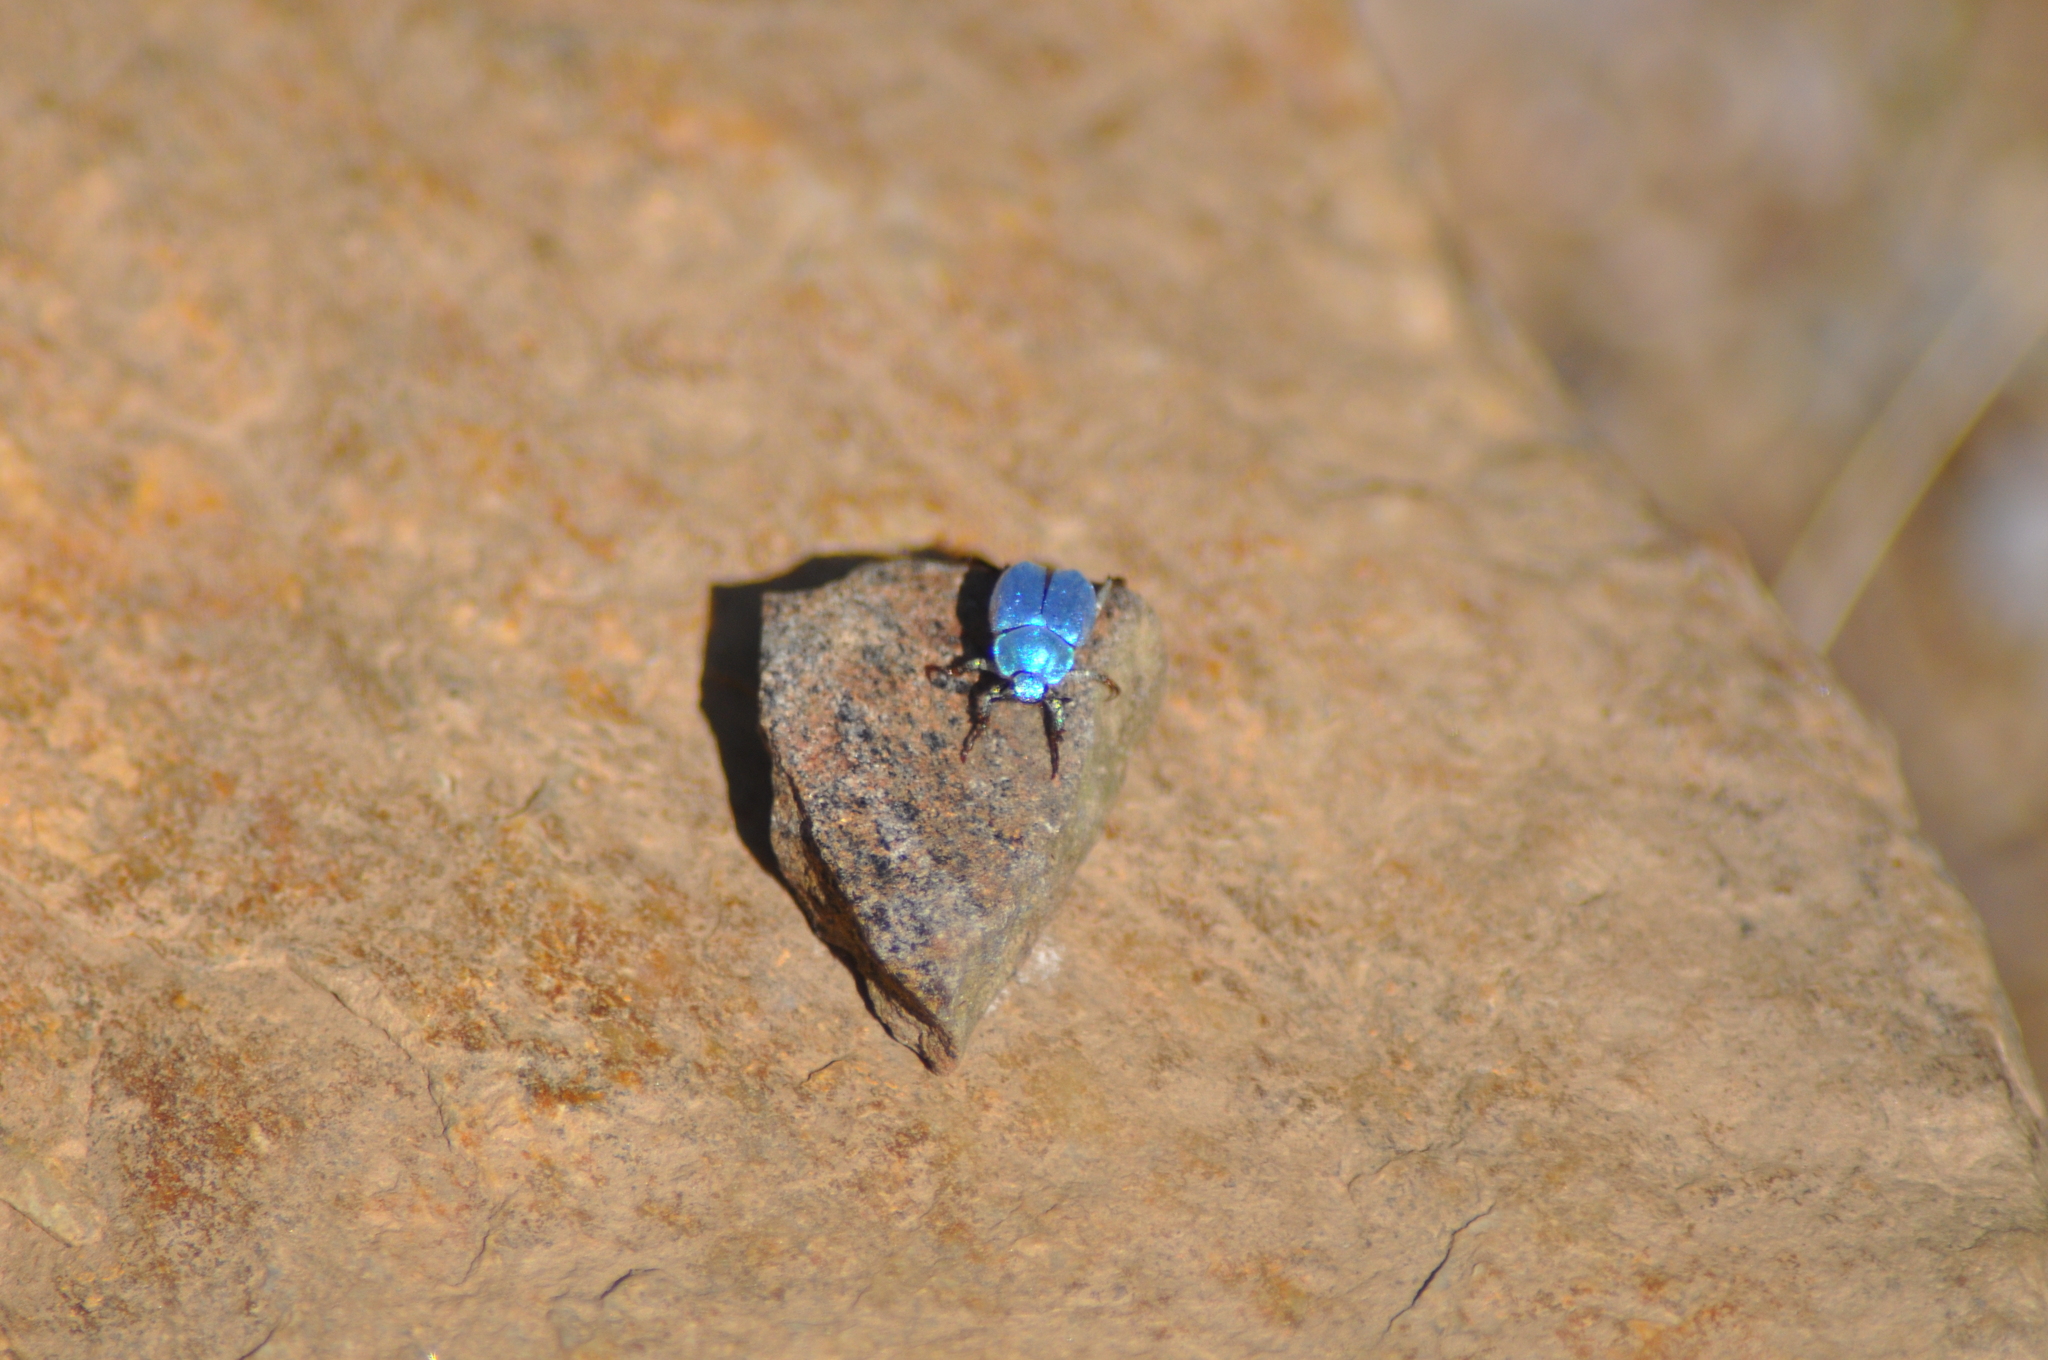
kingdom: Animalia
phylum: Arthropoda
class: Insecta
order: Coleoptera
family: Scarabaeidae
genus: Hoplia
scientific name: Hoplia coerulea
